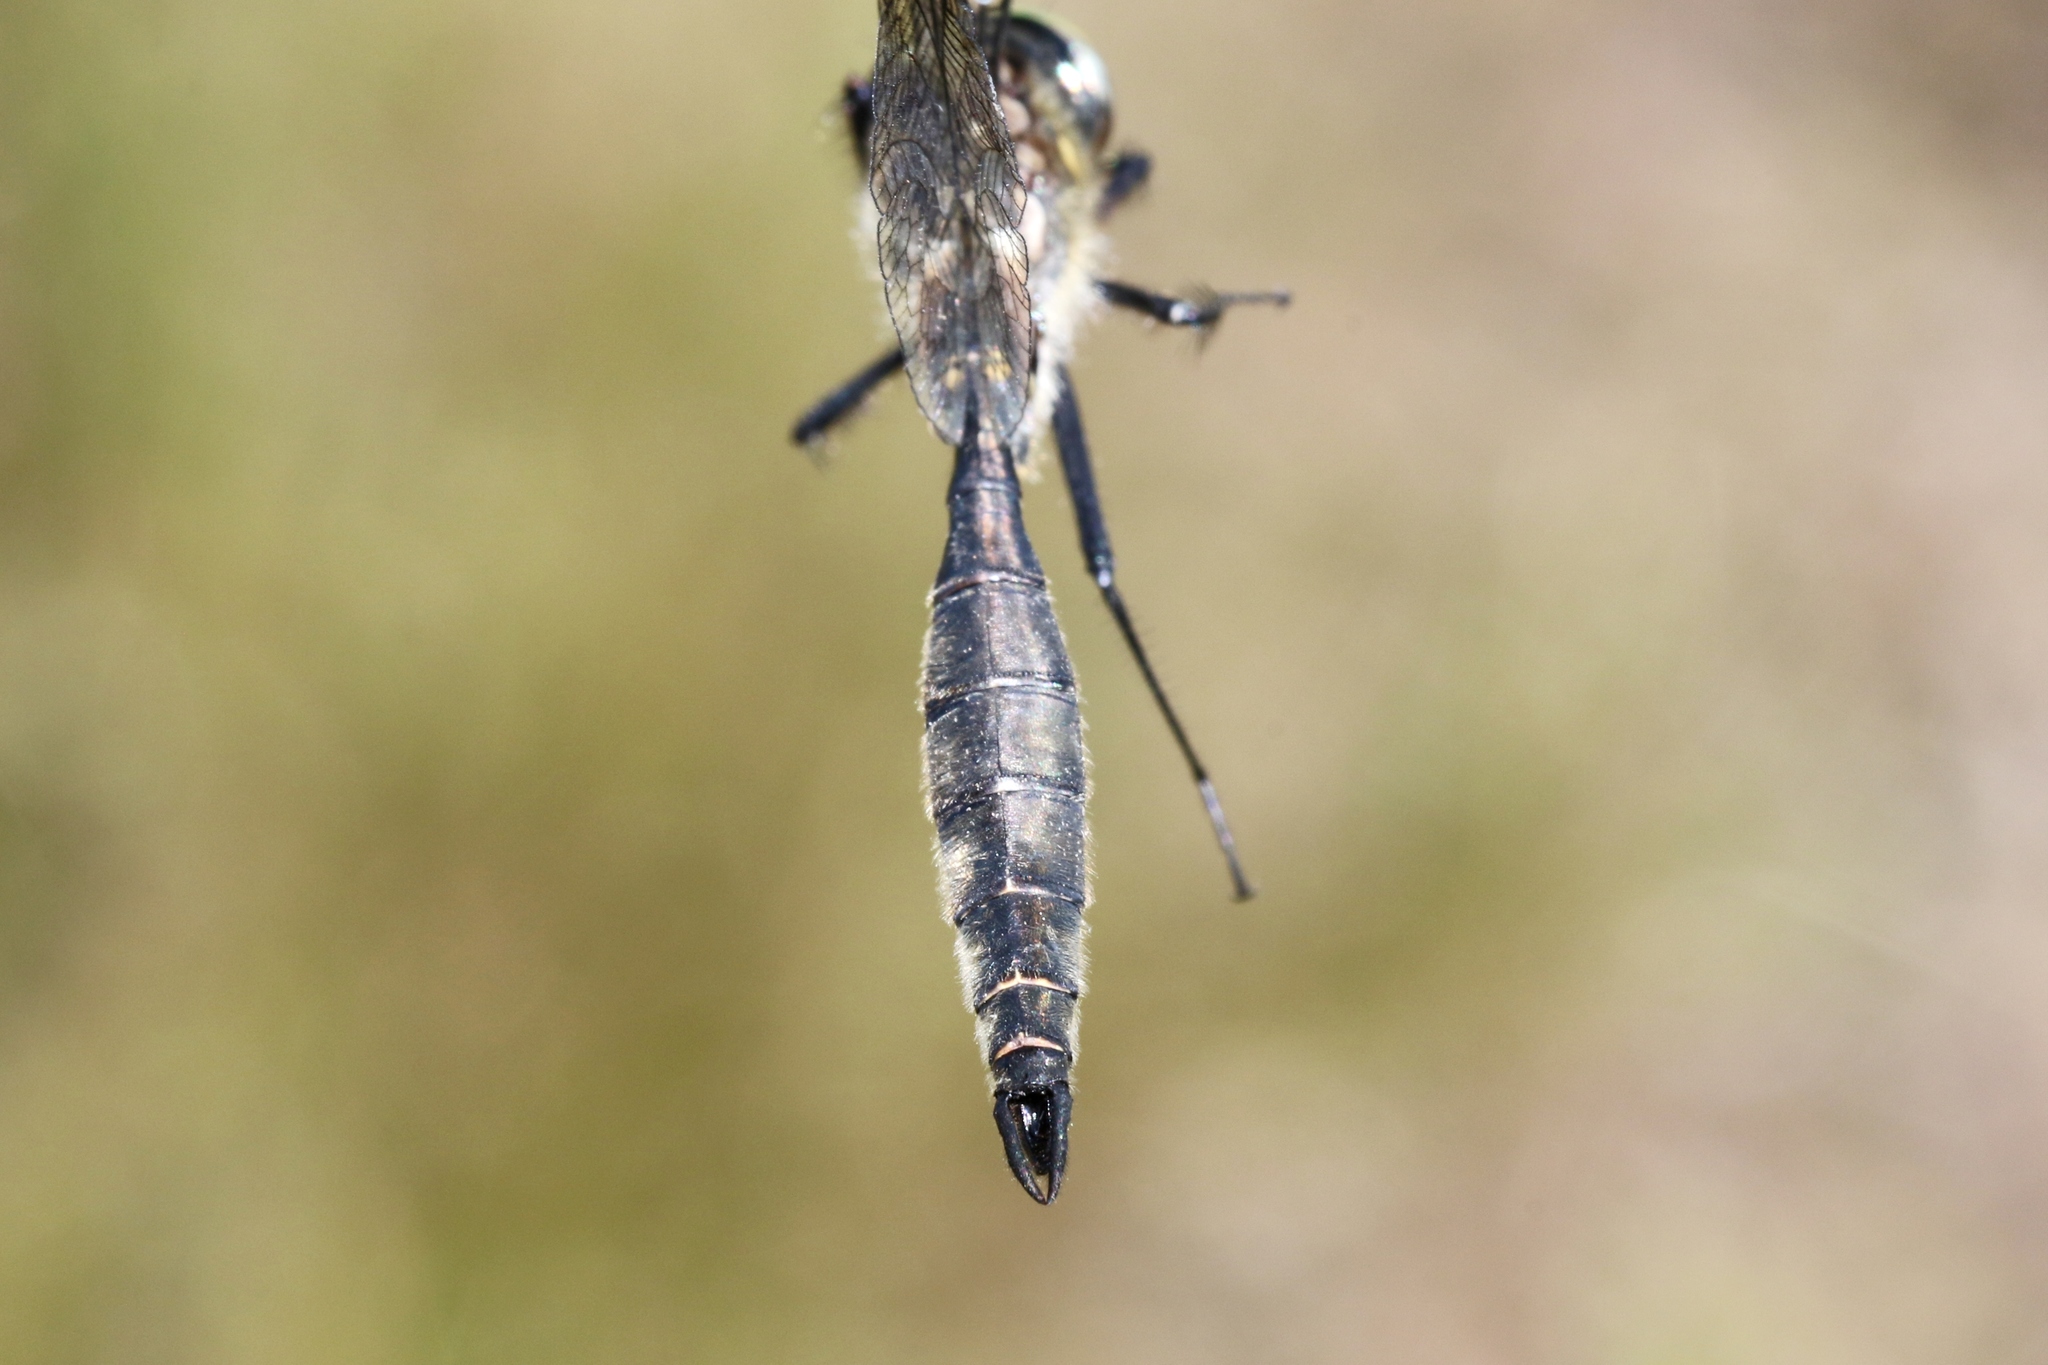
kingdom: Animalia
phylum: Arthropoda
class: Insecta
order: Odonata
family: Corduliidae
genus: Somatochlora
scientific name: Somatochlora minor
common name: Ocellated emerald
